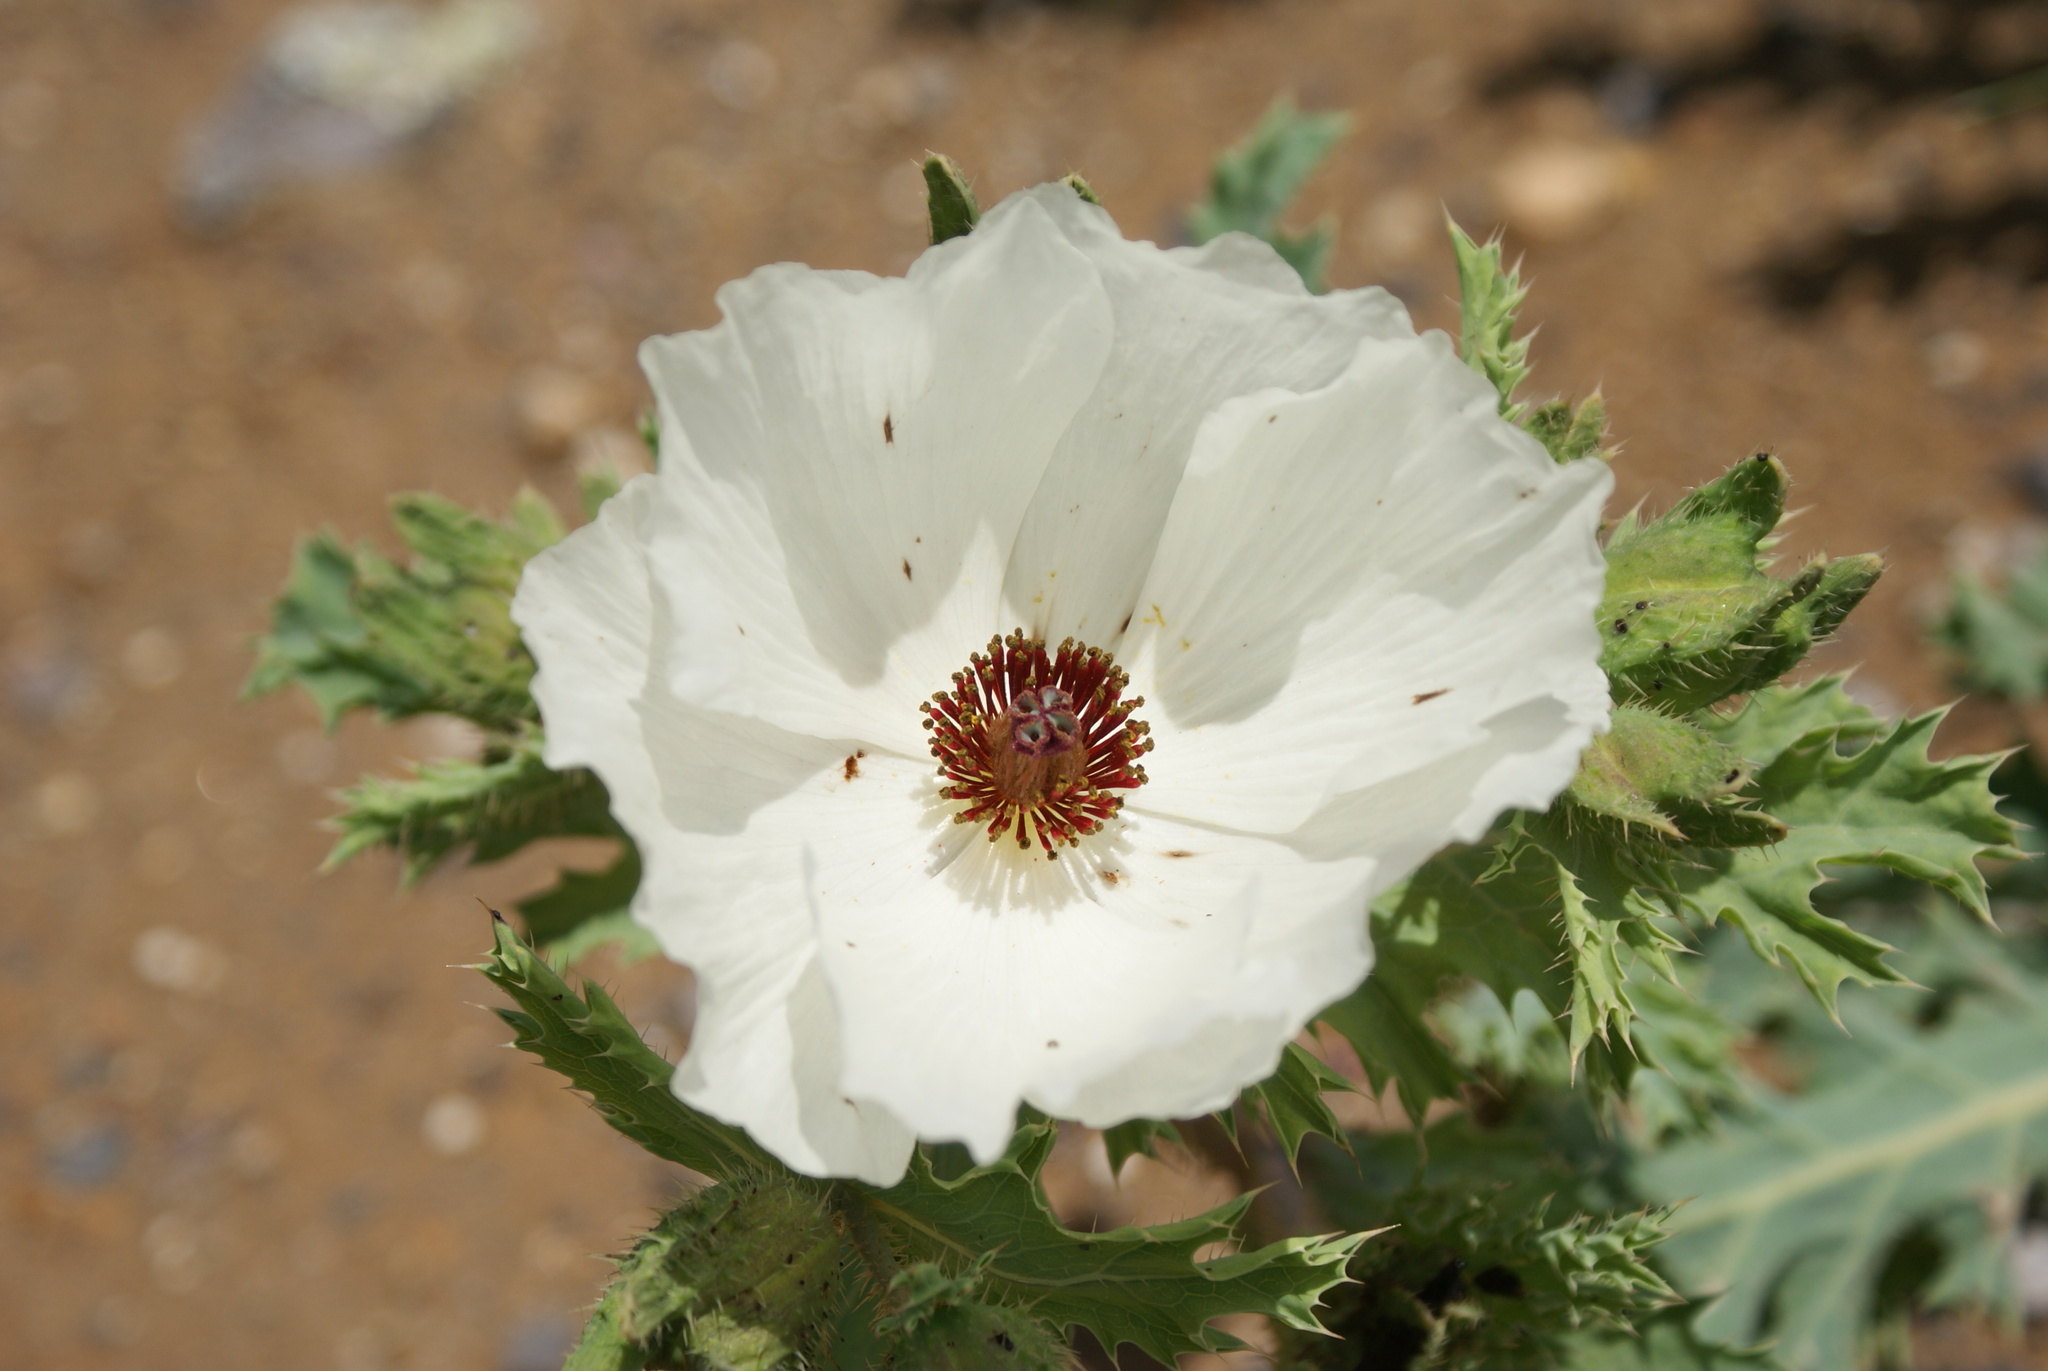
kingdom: Plantae
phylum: Tracheophyta
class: Magnoliopsida
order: Ranunculales
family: Papaveraceae
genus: Argemone
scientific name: Argemone platyceras
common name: Crested-poppy
